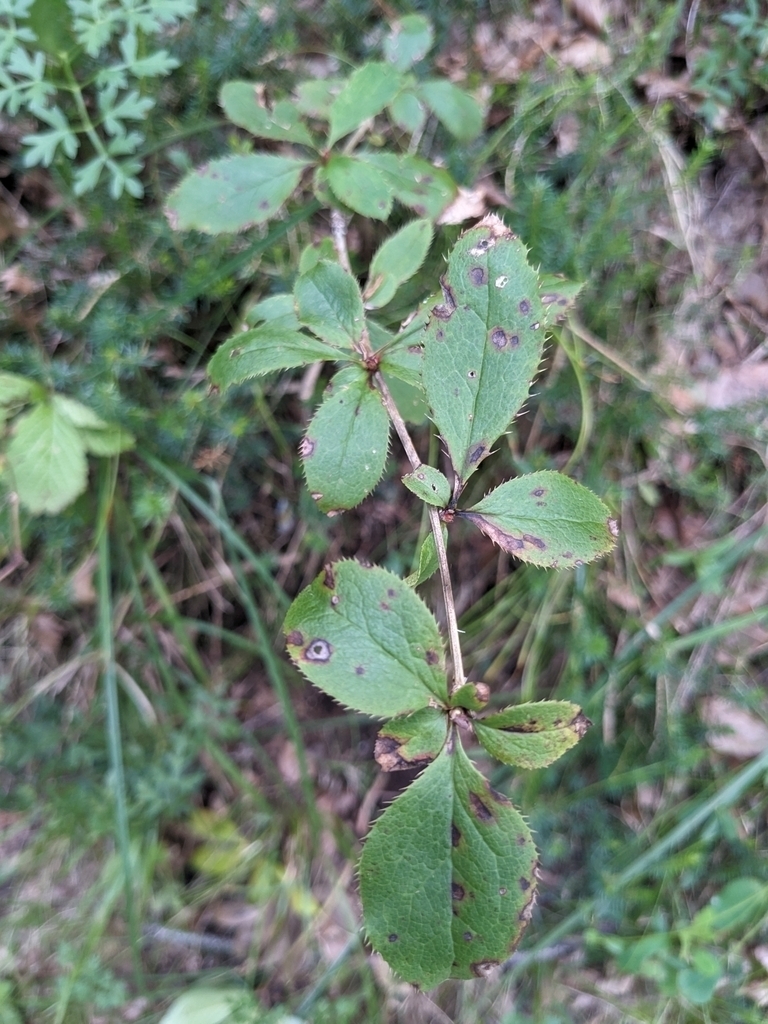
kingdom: Plantae
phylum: Tracheophyta
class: Magnoliopsida
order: Ranunculales
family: Berberidaceae
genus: Berberis
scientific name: Berberis vulgaris
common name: Barberry
